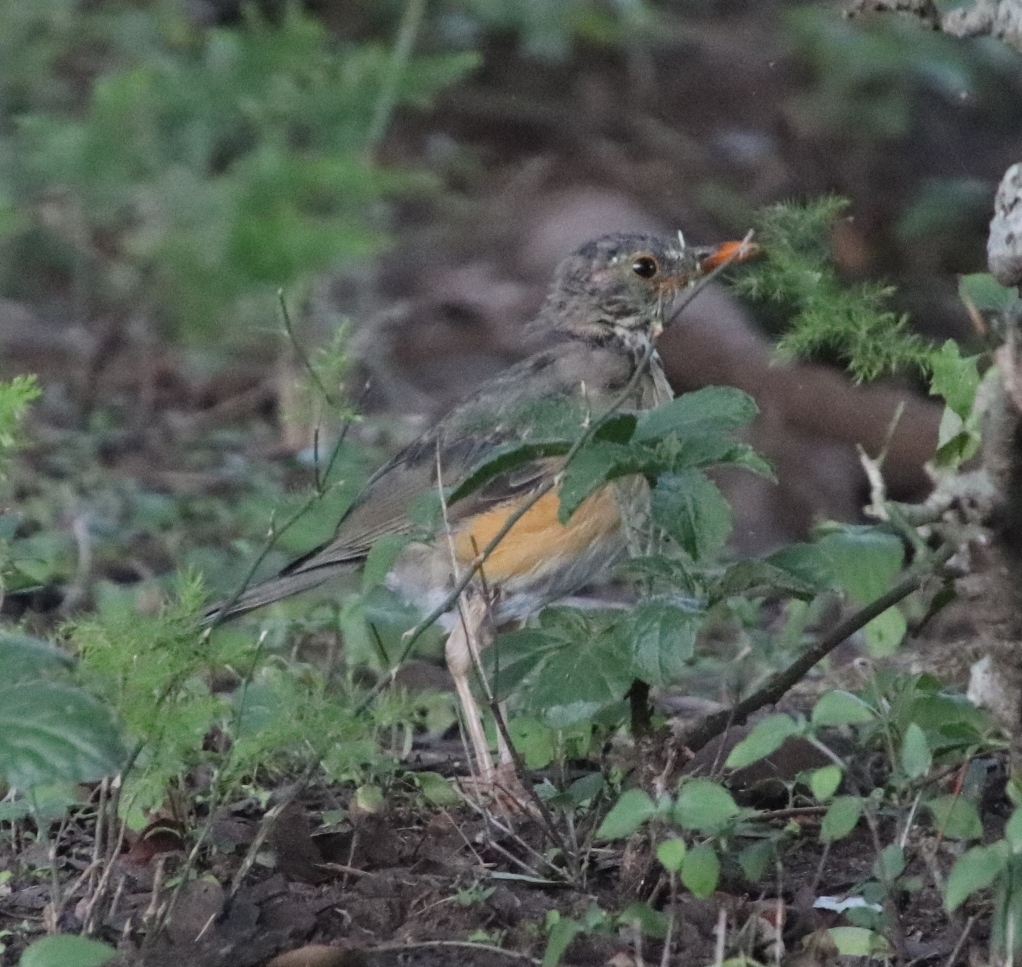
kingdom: Animalia
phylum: Chordata
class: Aves
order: Passeriformes
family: Turdidae
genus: Turdus
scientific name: Turdus libonyana
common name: Kurrichane thrush
